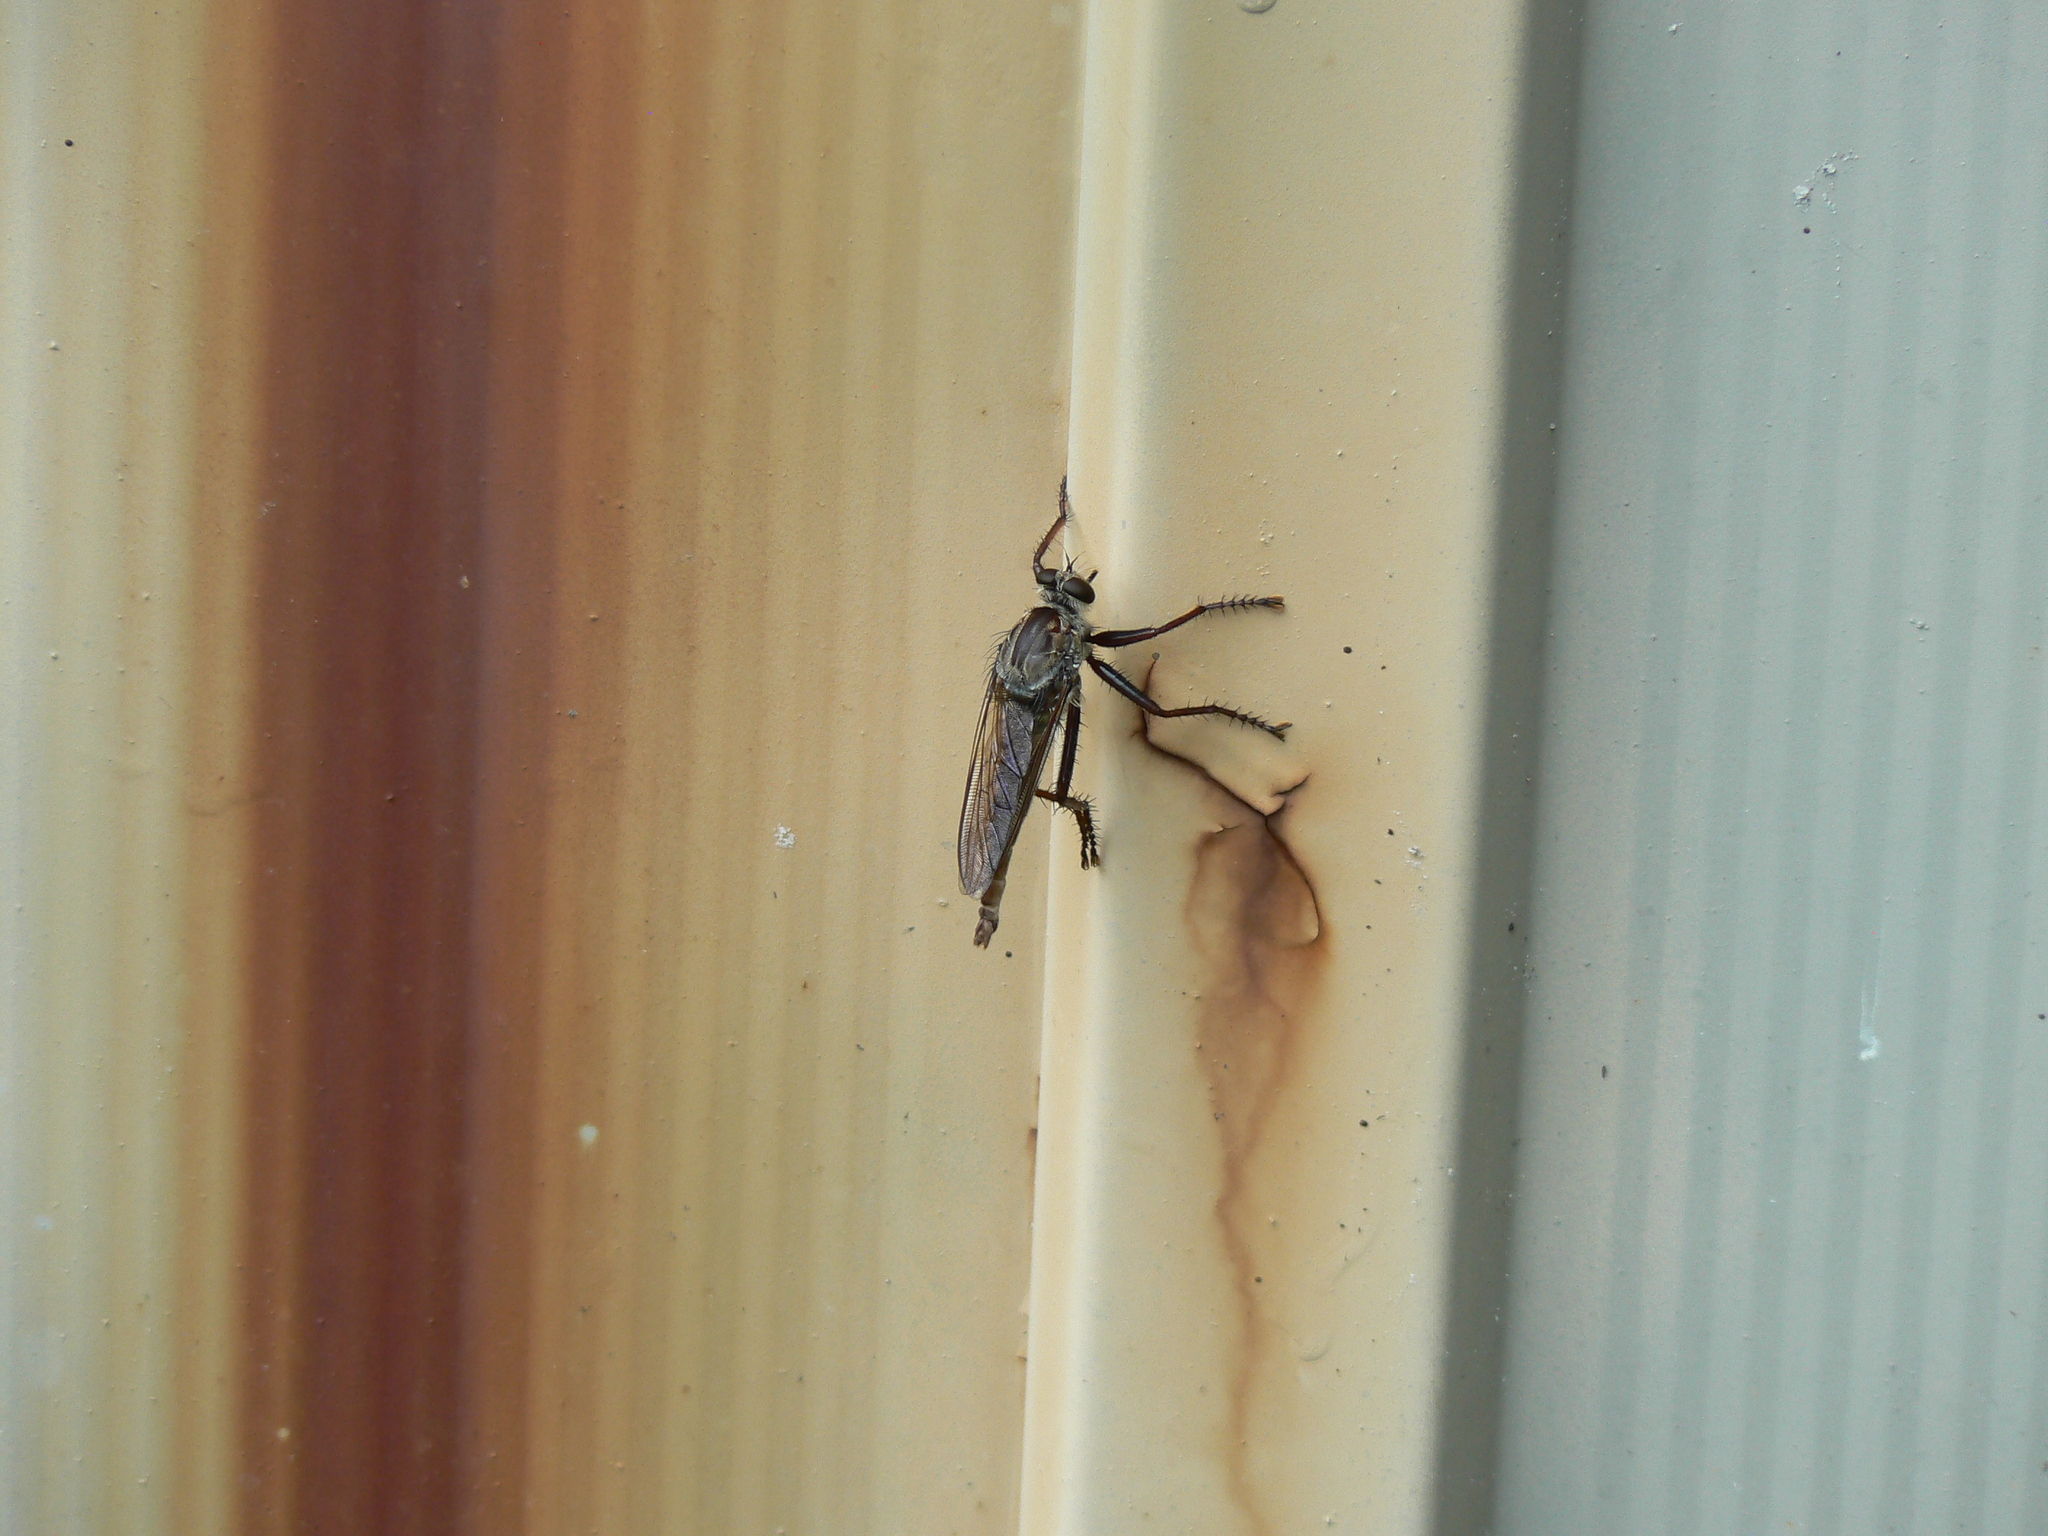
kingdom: Animalia
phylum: Arthropoda
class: Insecta
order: Diptera
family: Asilidae
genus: Proctacanthus
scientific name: Proctacanthus longus
